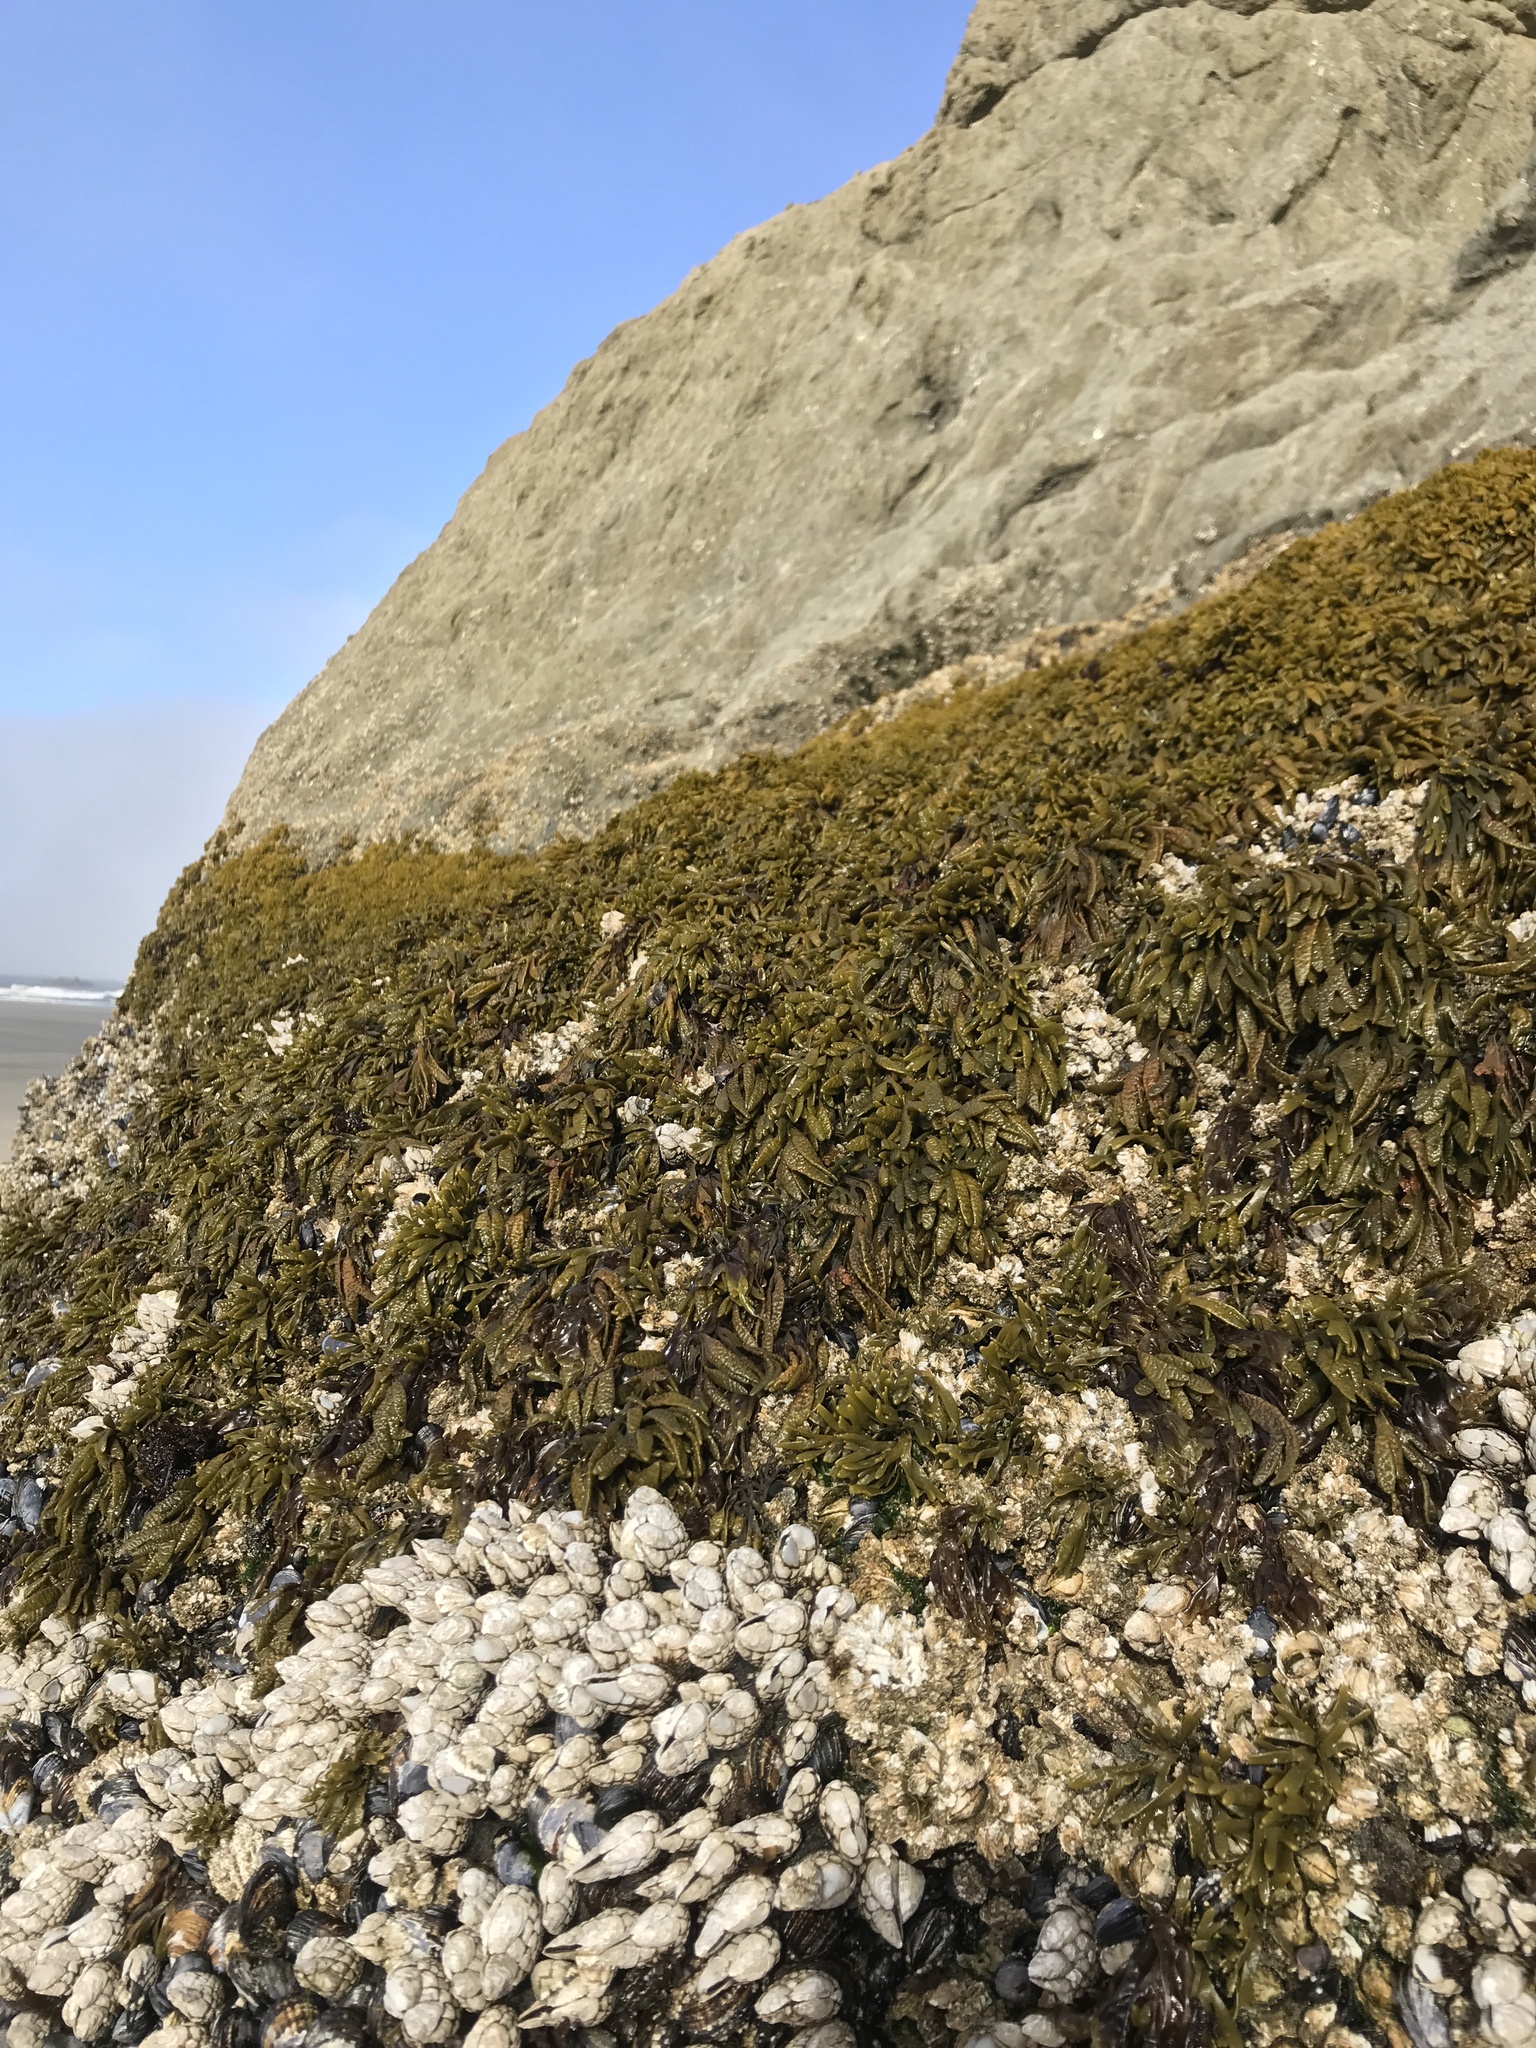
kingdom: Chromista
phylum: Ochrophyta
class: Phaeophyceae
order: Fucales
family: Fucaceae
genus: Pelvetiopsis
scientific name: Pelvetiopsis limitata
